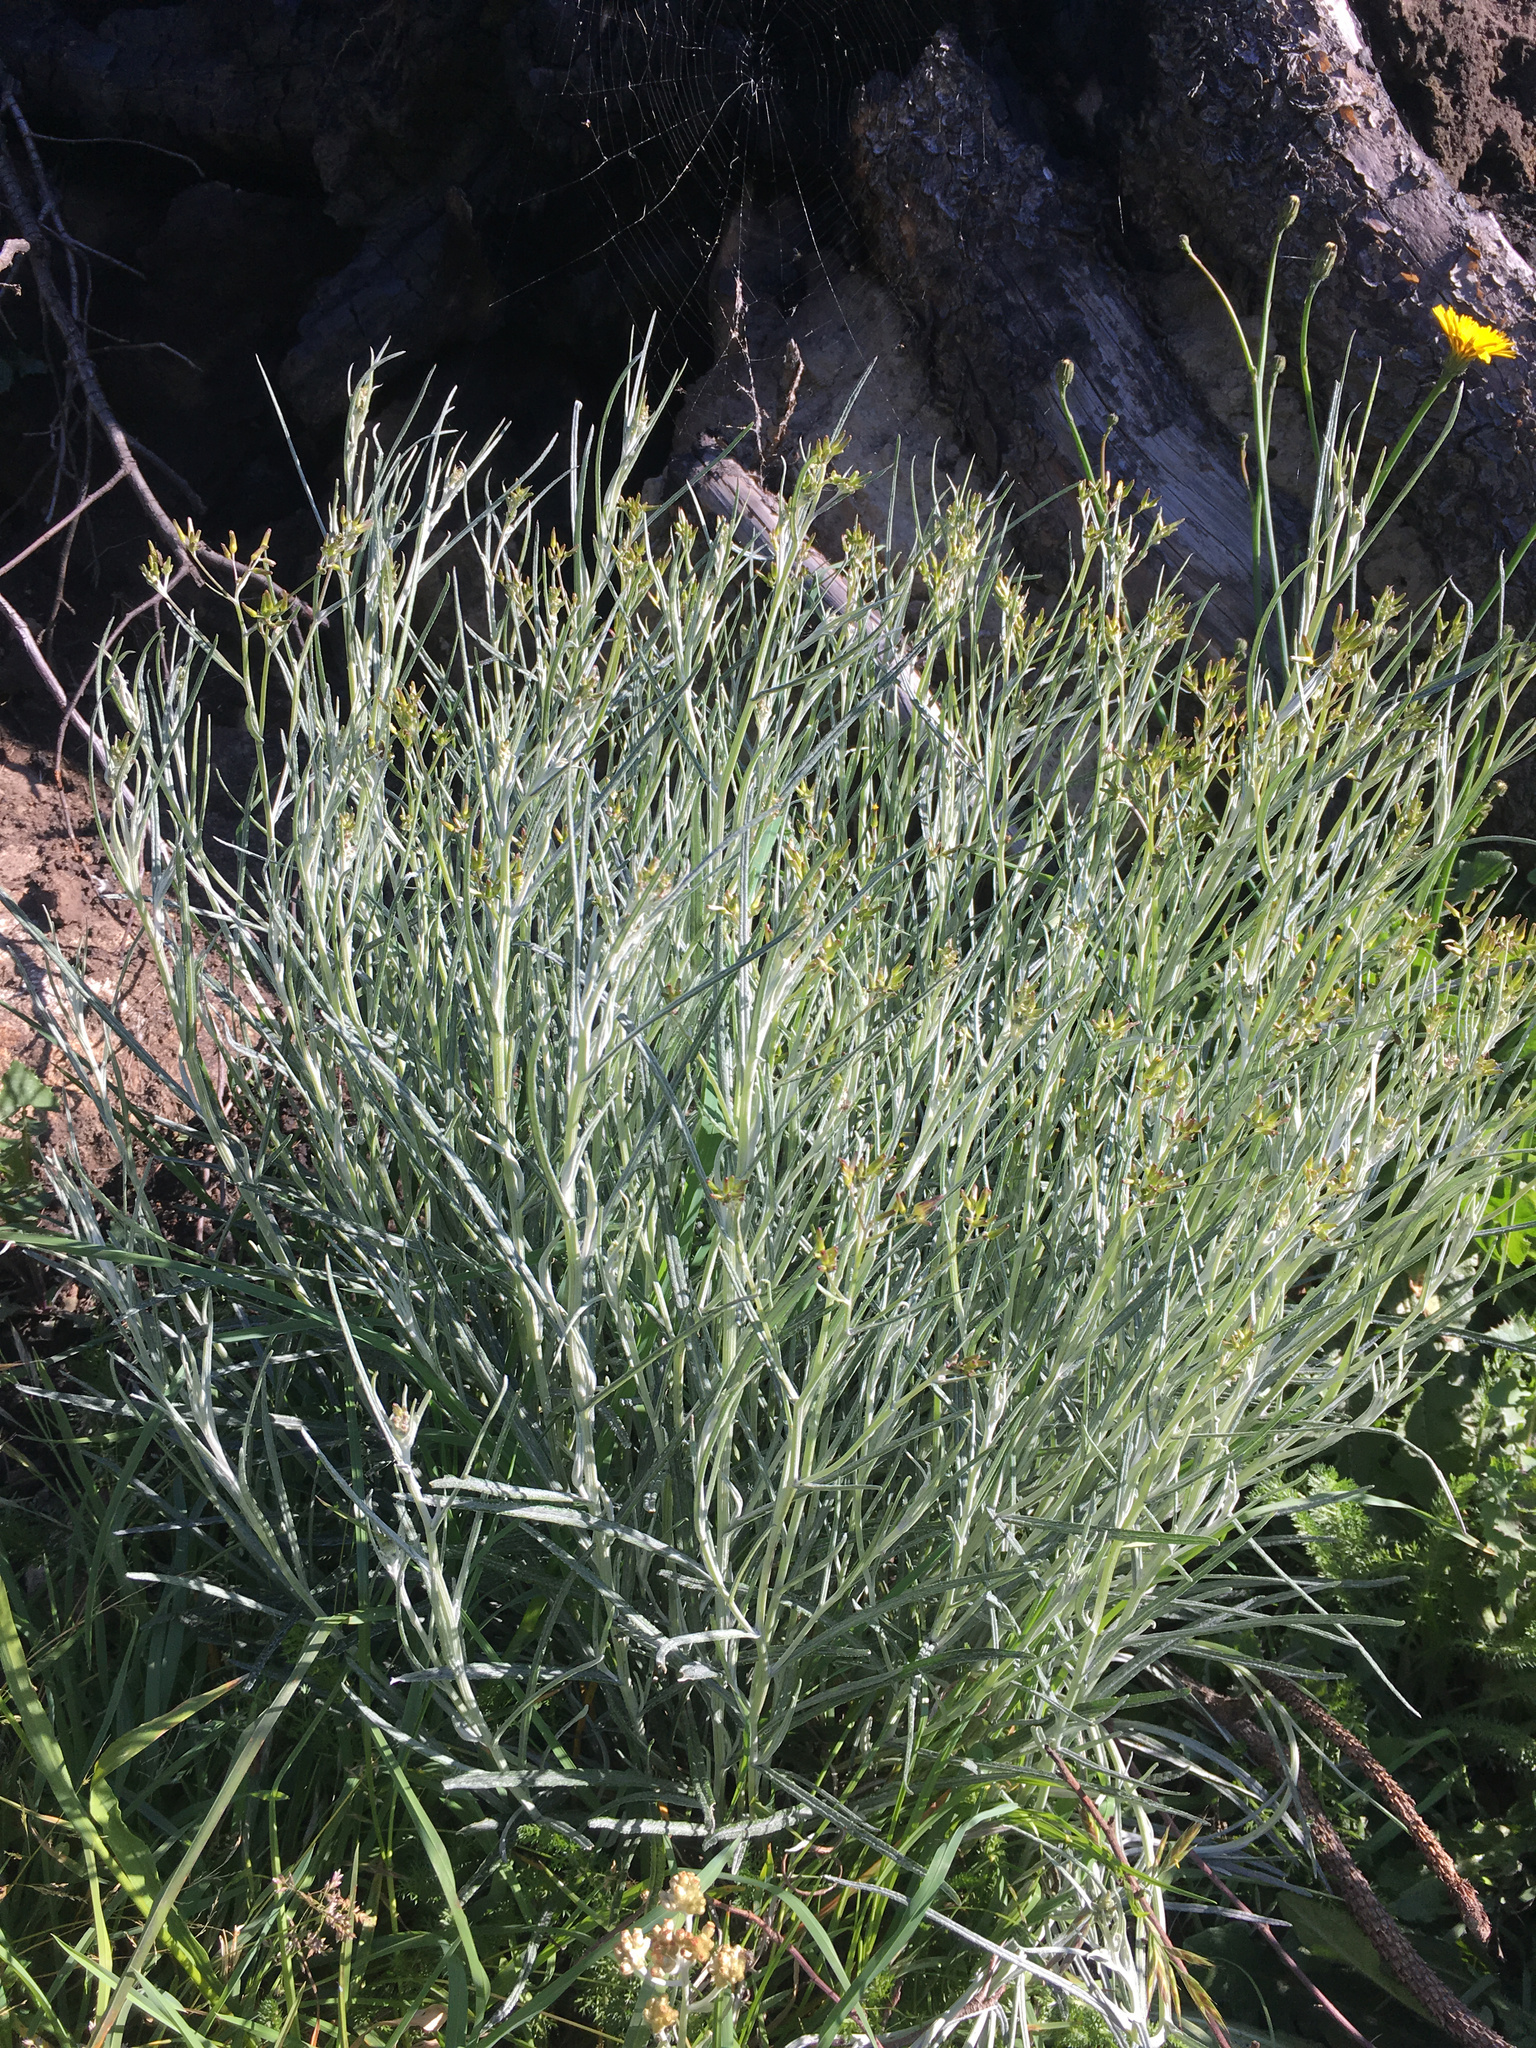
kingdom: Plantae
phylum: Tracheophyta
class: Magnoliopsida
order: Asterales
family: Asteraceae
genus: Senecio
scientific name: Senecio quadridentatus
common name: Cotton fireweed
